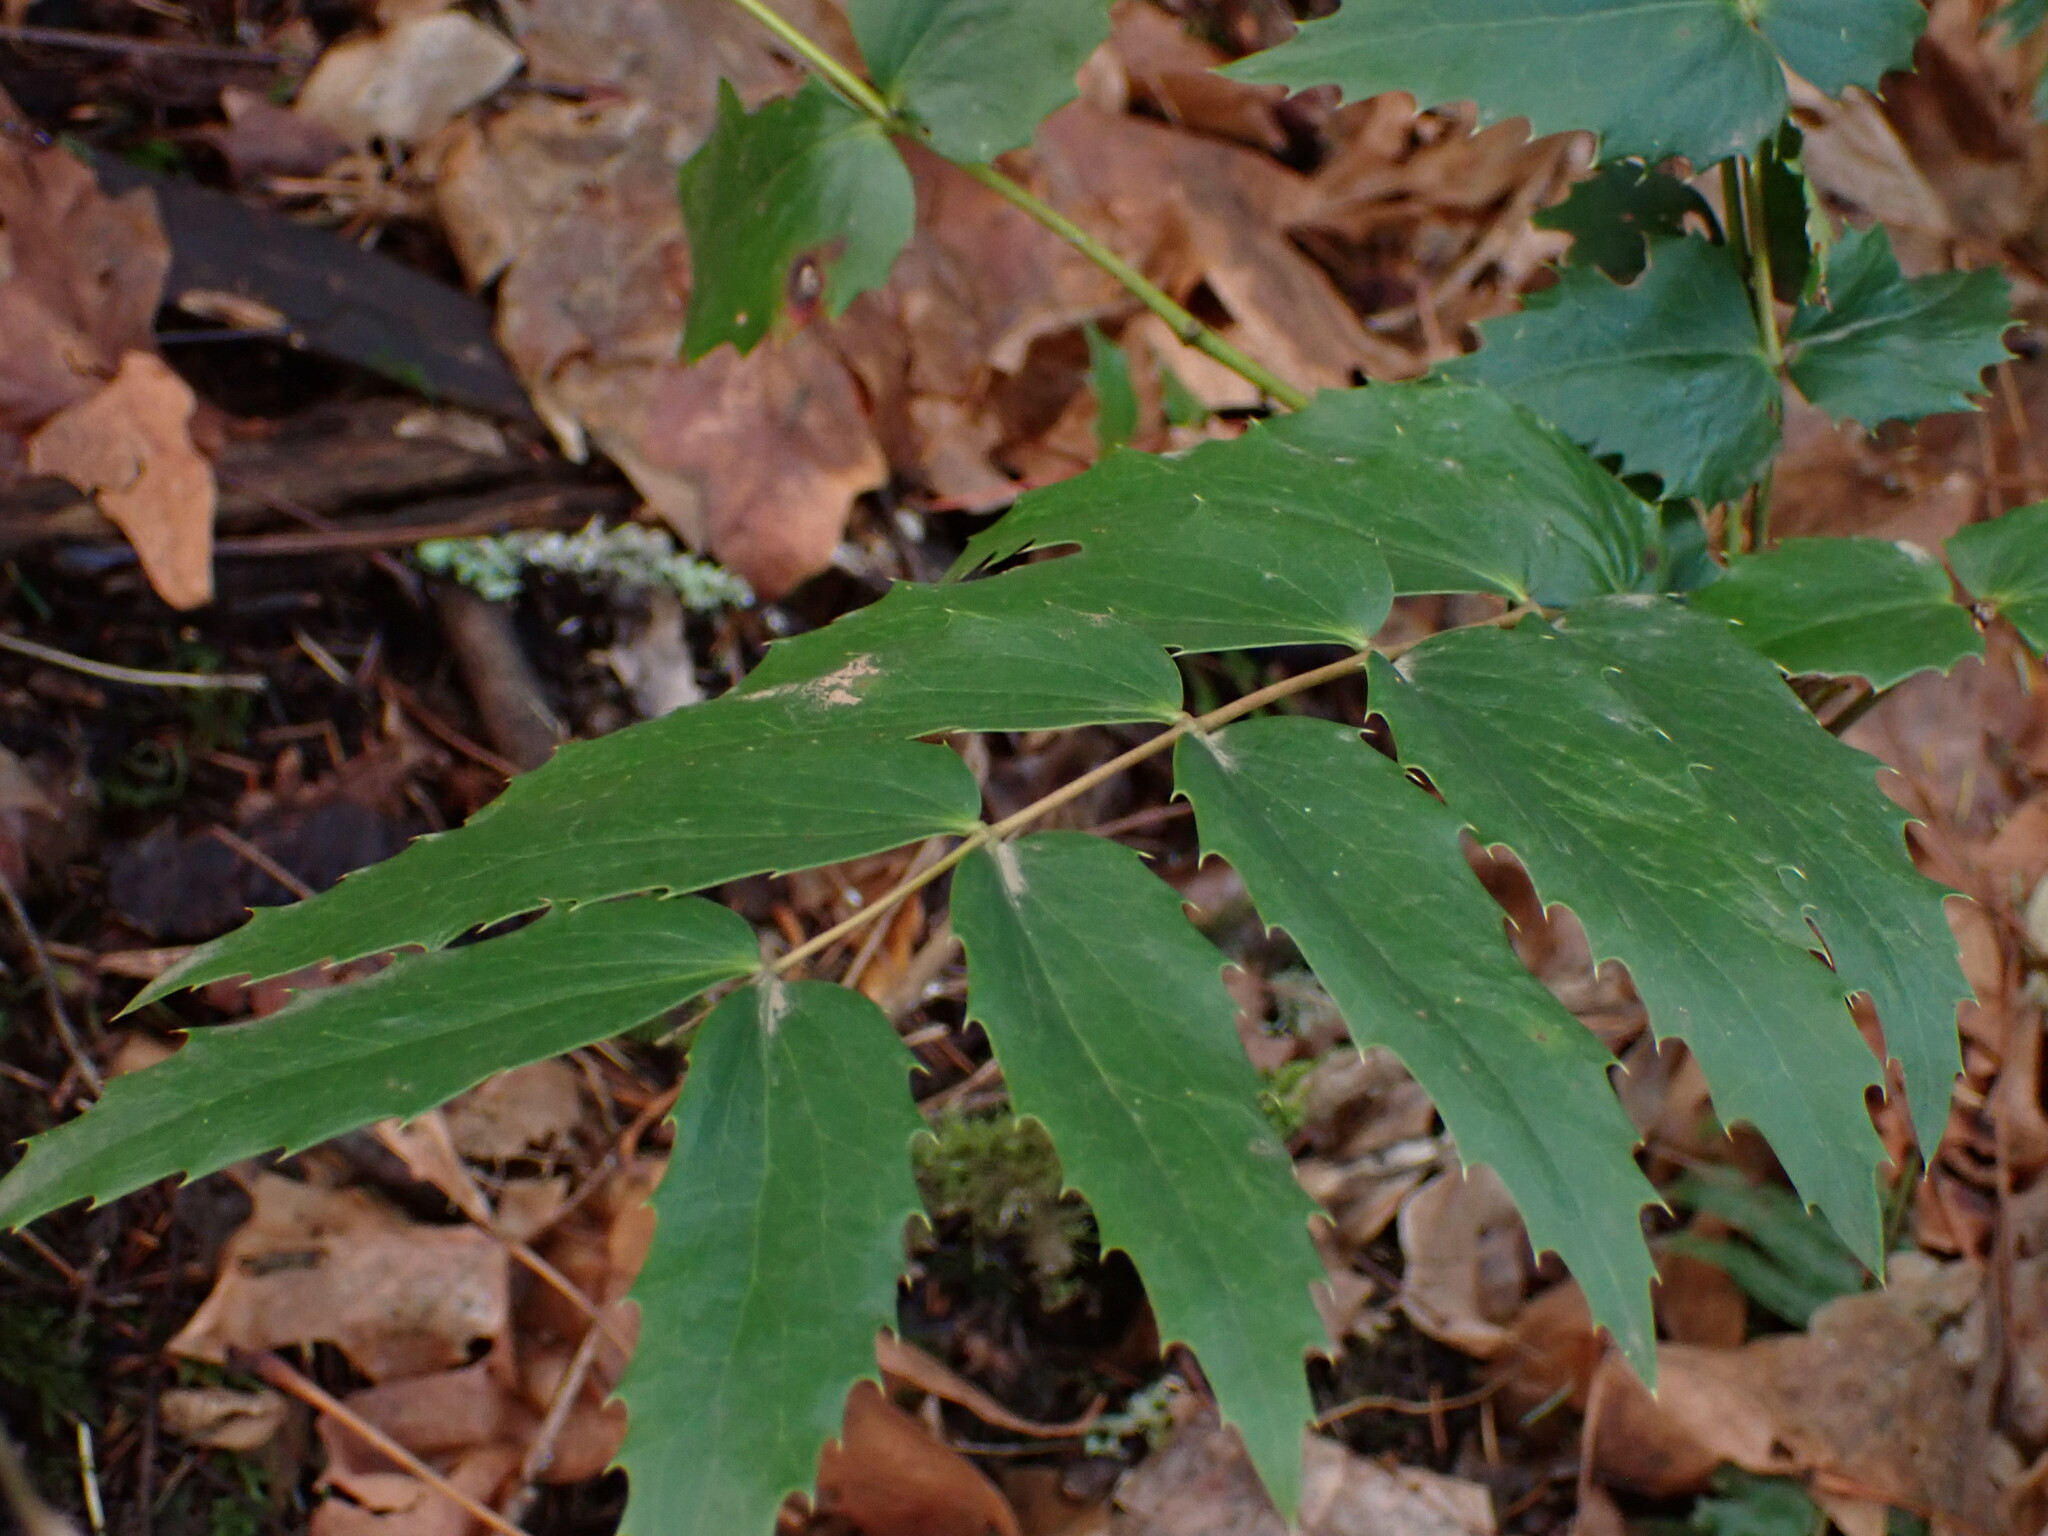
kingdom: Plantae
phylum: Tracheophyta
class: Magnoliopsida
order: Ranunculales
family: Berberidaceae
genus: Mahonia
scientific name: Mahonia nervosa
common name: Cascade oregon-grape
